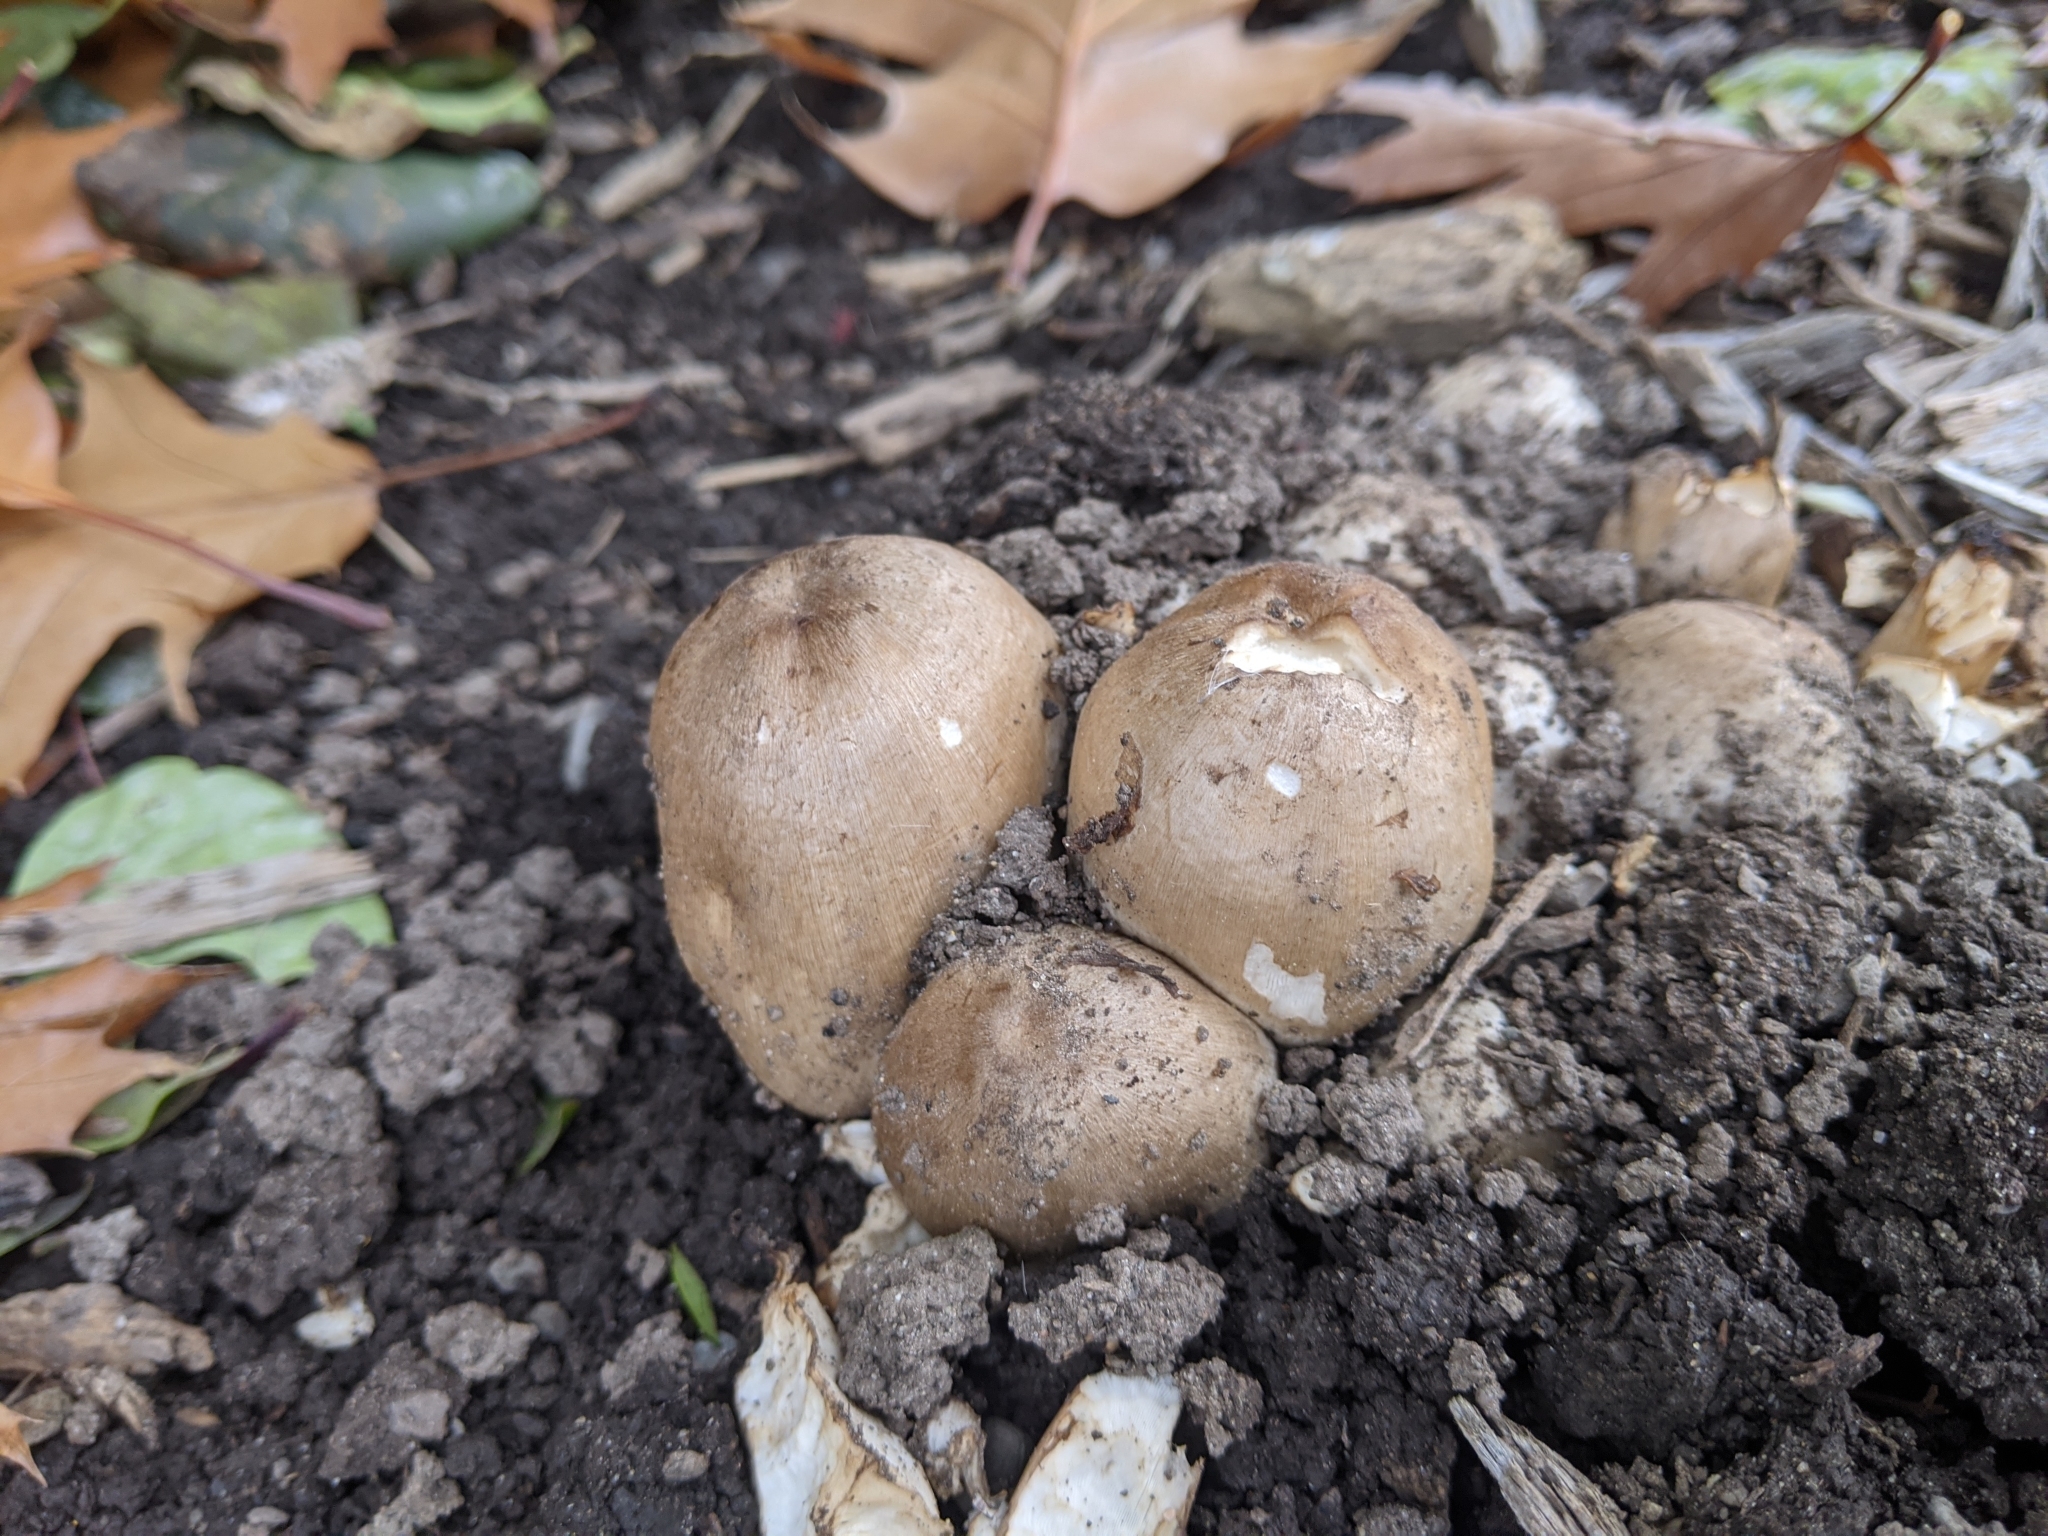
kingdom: Fungi
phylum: Basidiomycota
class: Agaricomycetes
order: Agaricales
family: Psathyrellaceae
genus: Coprinopsis
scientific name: Coprinopsis atramentaria
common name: Common ink-cap
